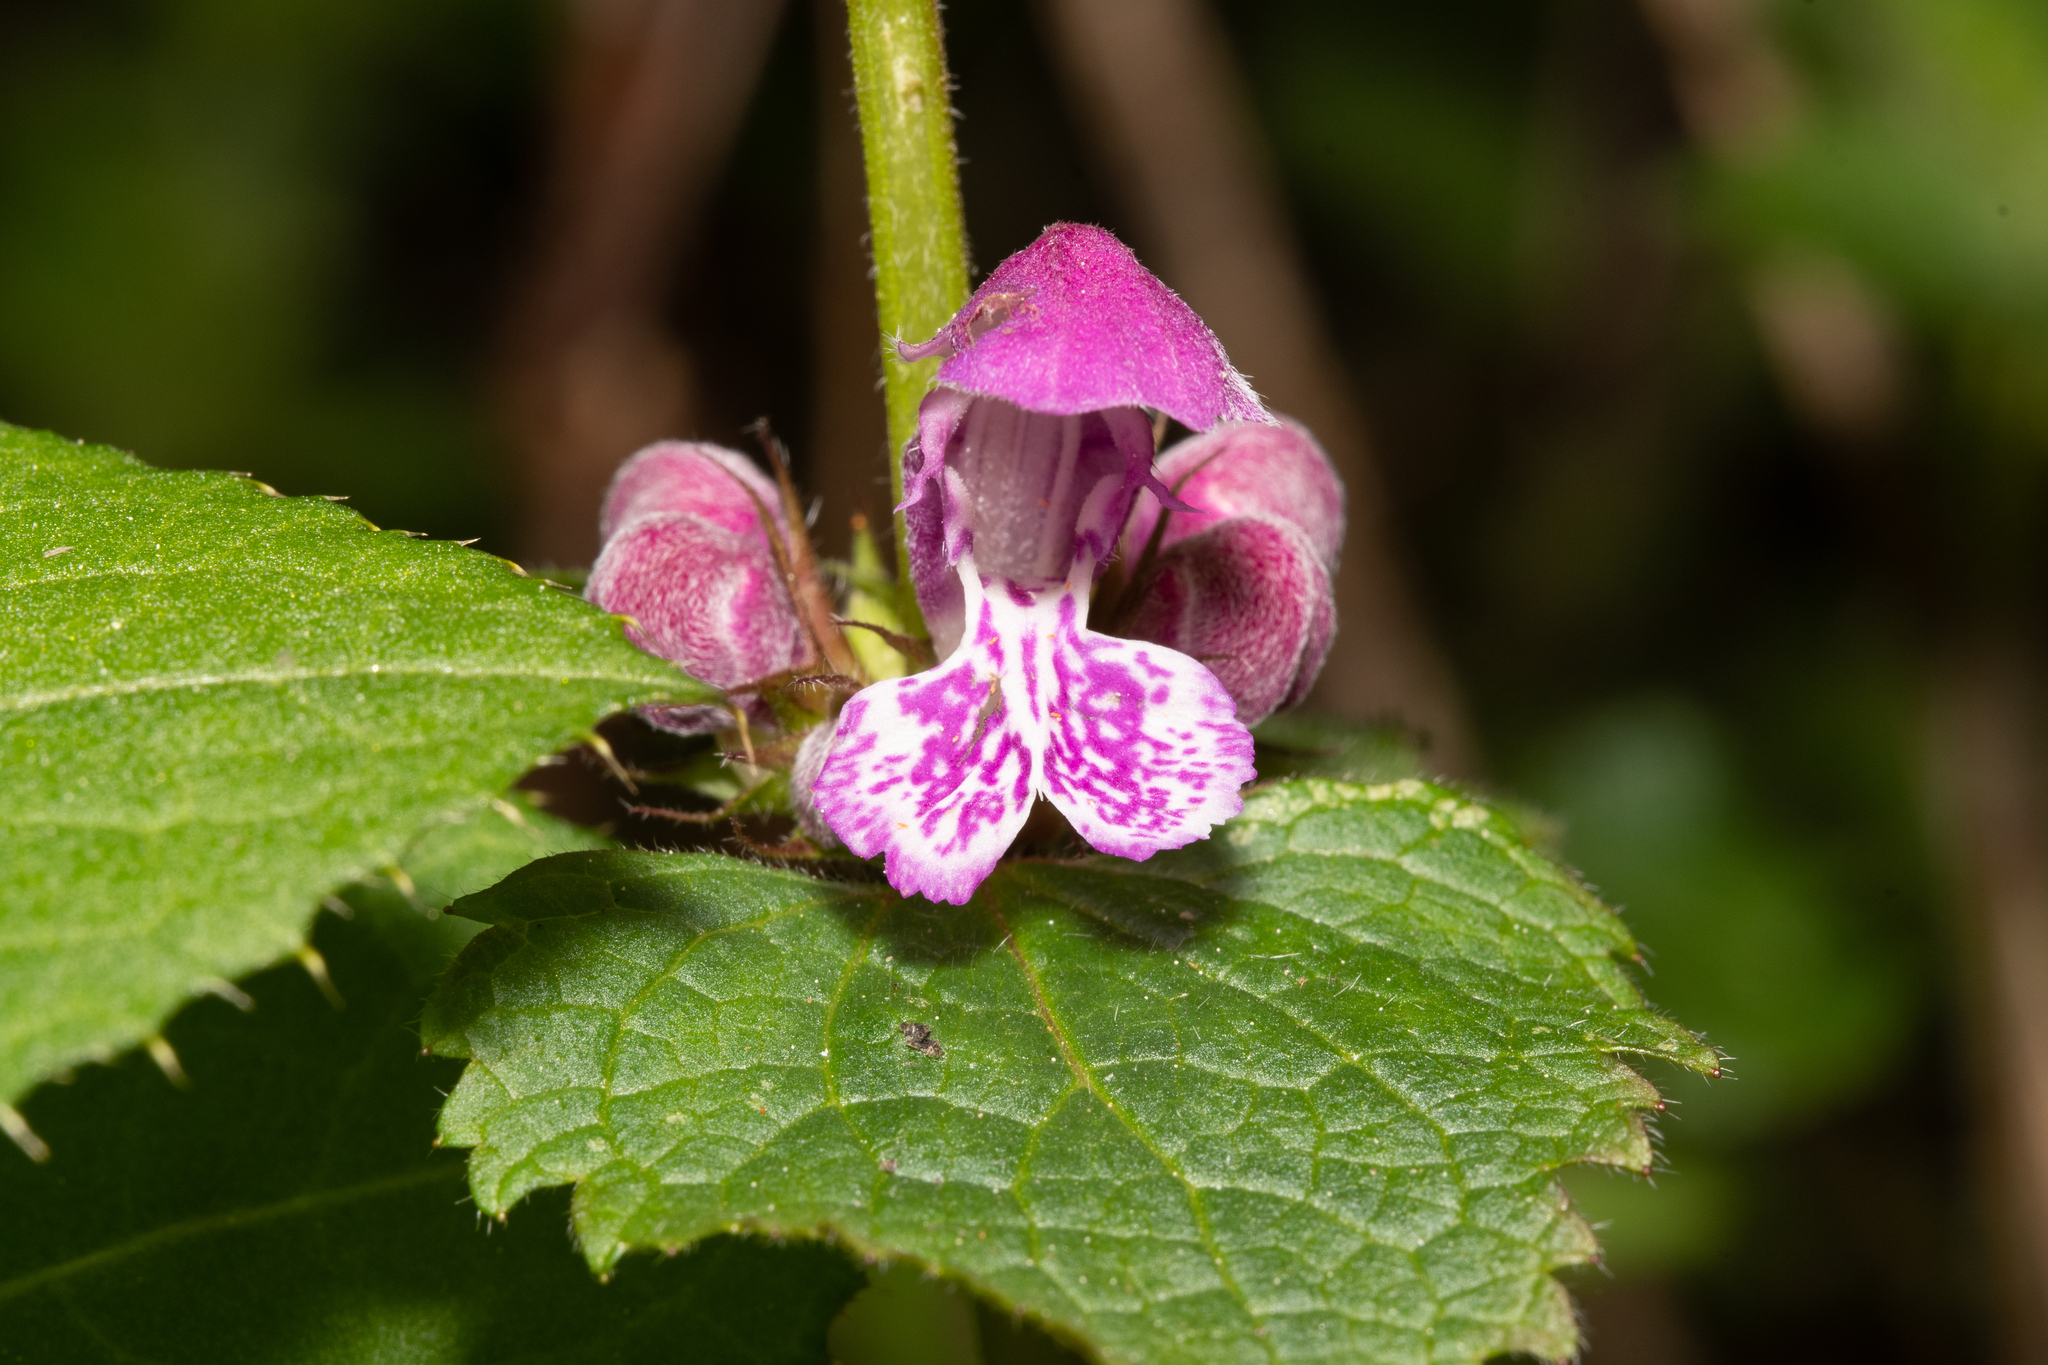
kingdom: Plantae
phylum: Tracheophyta
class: Magnoliopsida
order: Lamiales
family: Lamiaceae
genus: Lamium
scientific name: Lamium maculatum
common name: Spotted dead-nettle
